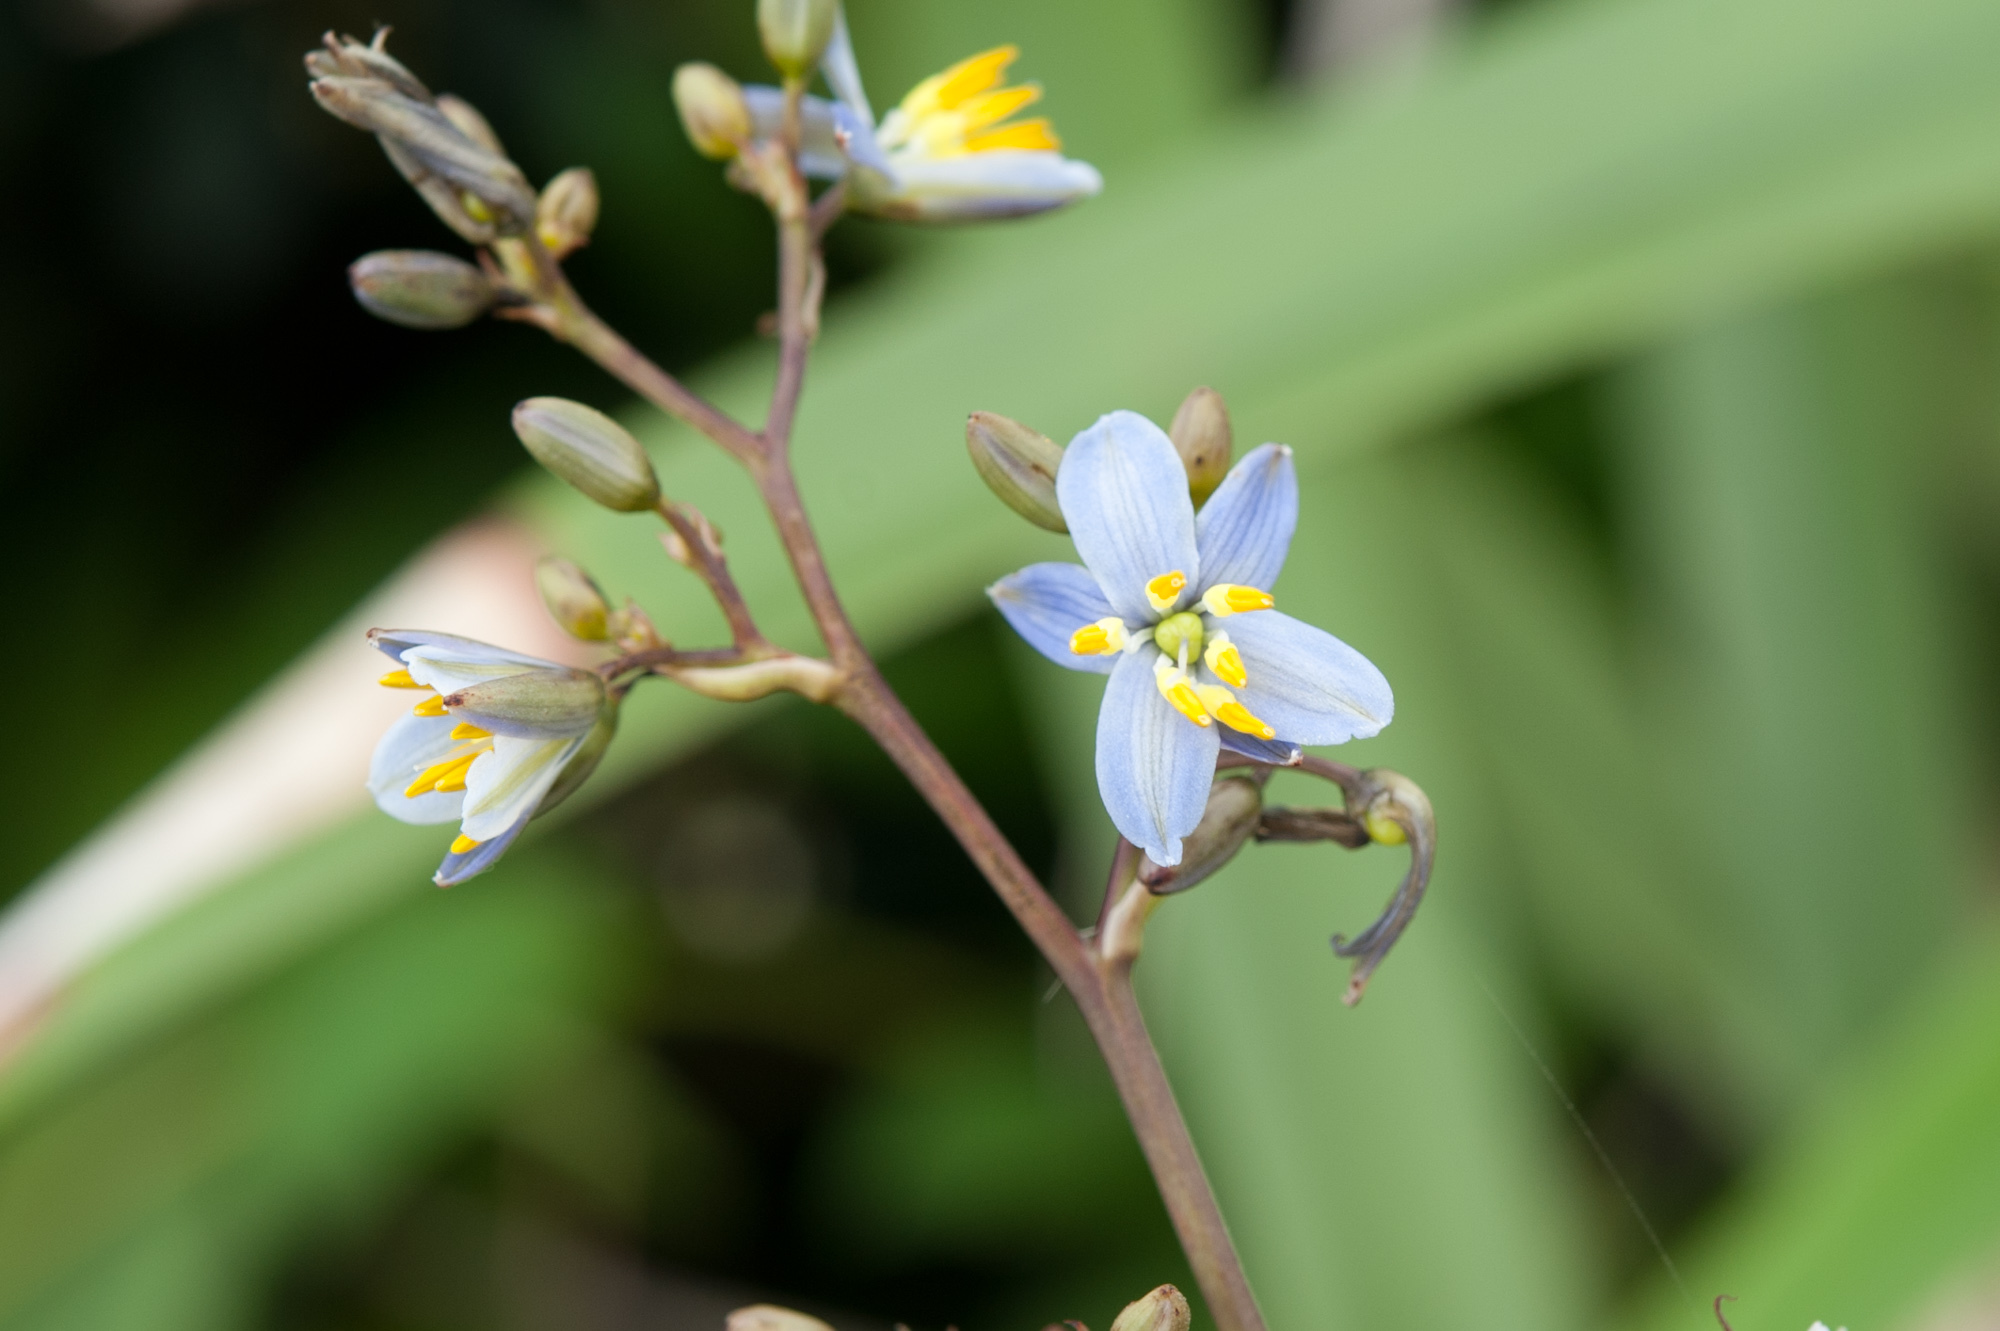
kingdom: Plantae
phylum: Tracheophyta
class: Liliopsida
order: Asparagales
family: Asphodelaceae
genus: Dianella
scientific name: Dianella ensifolia
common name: New zealand lilyplant
